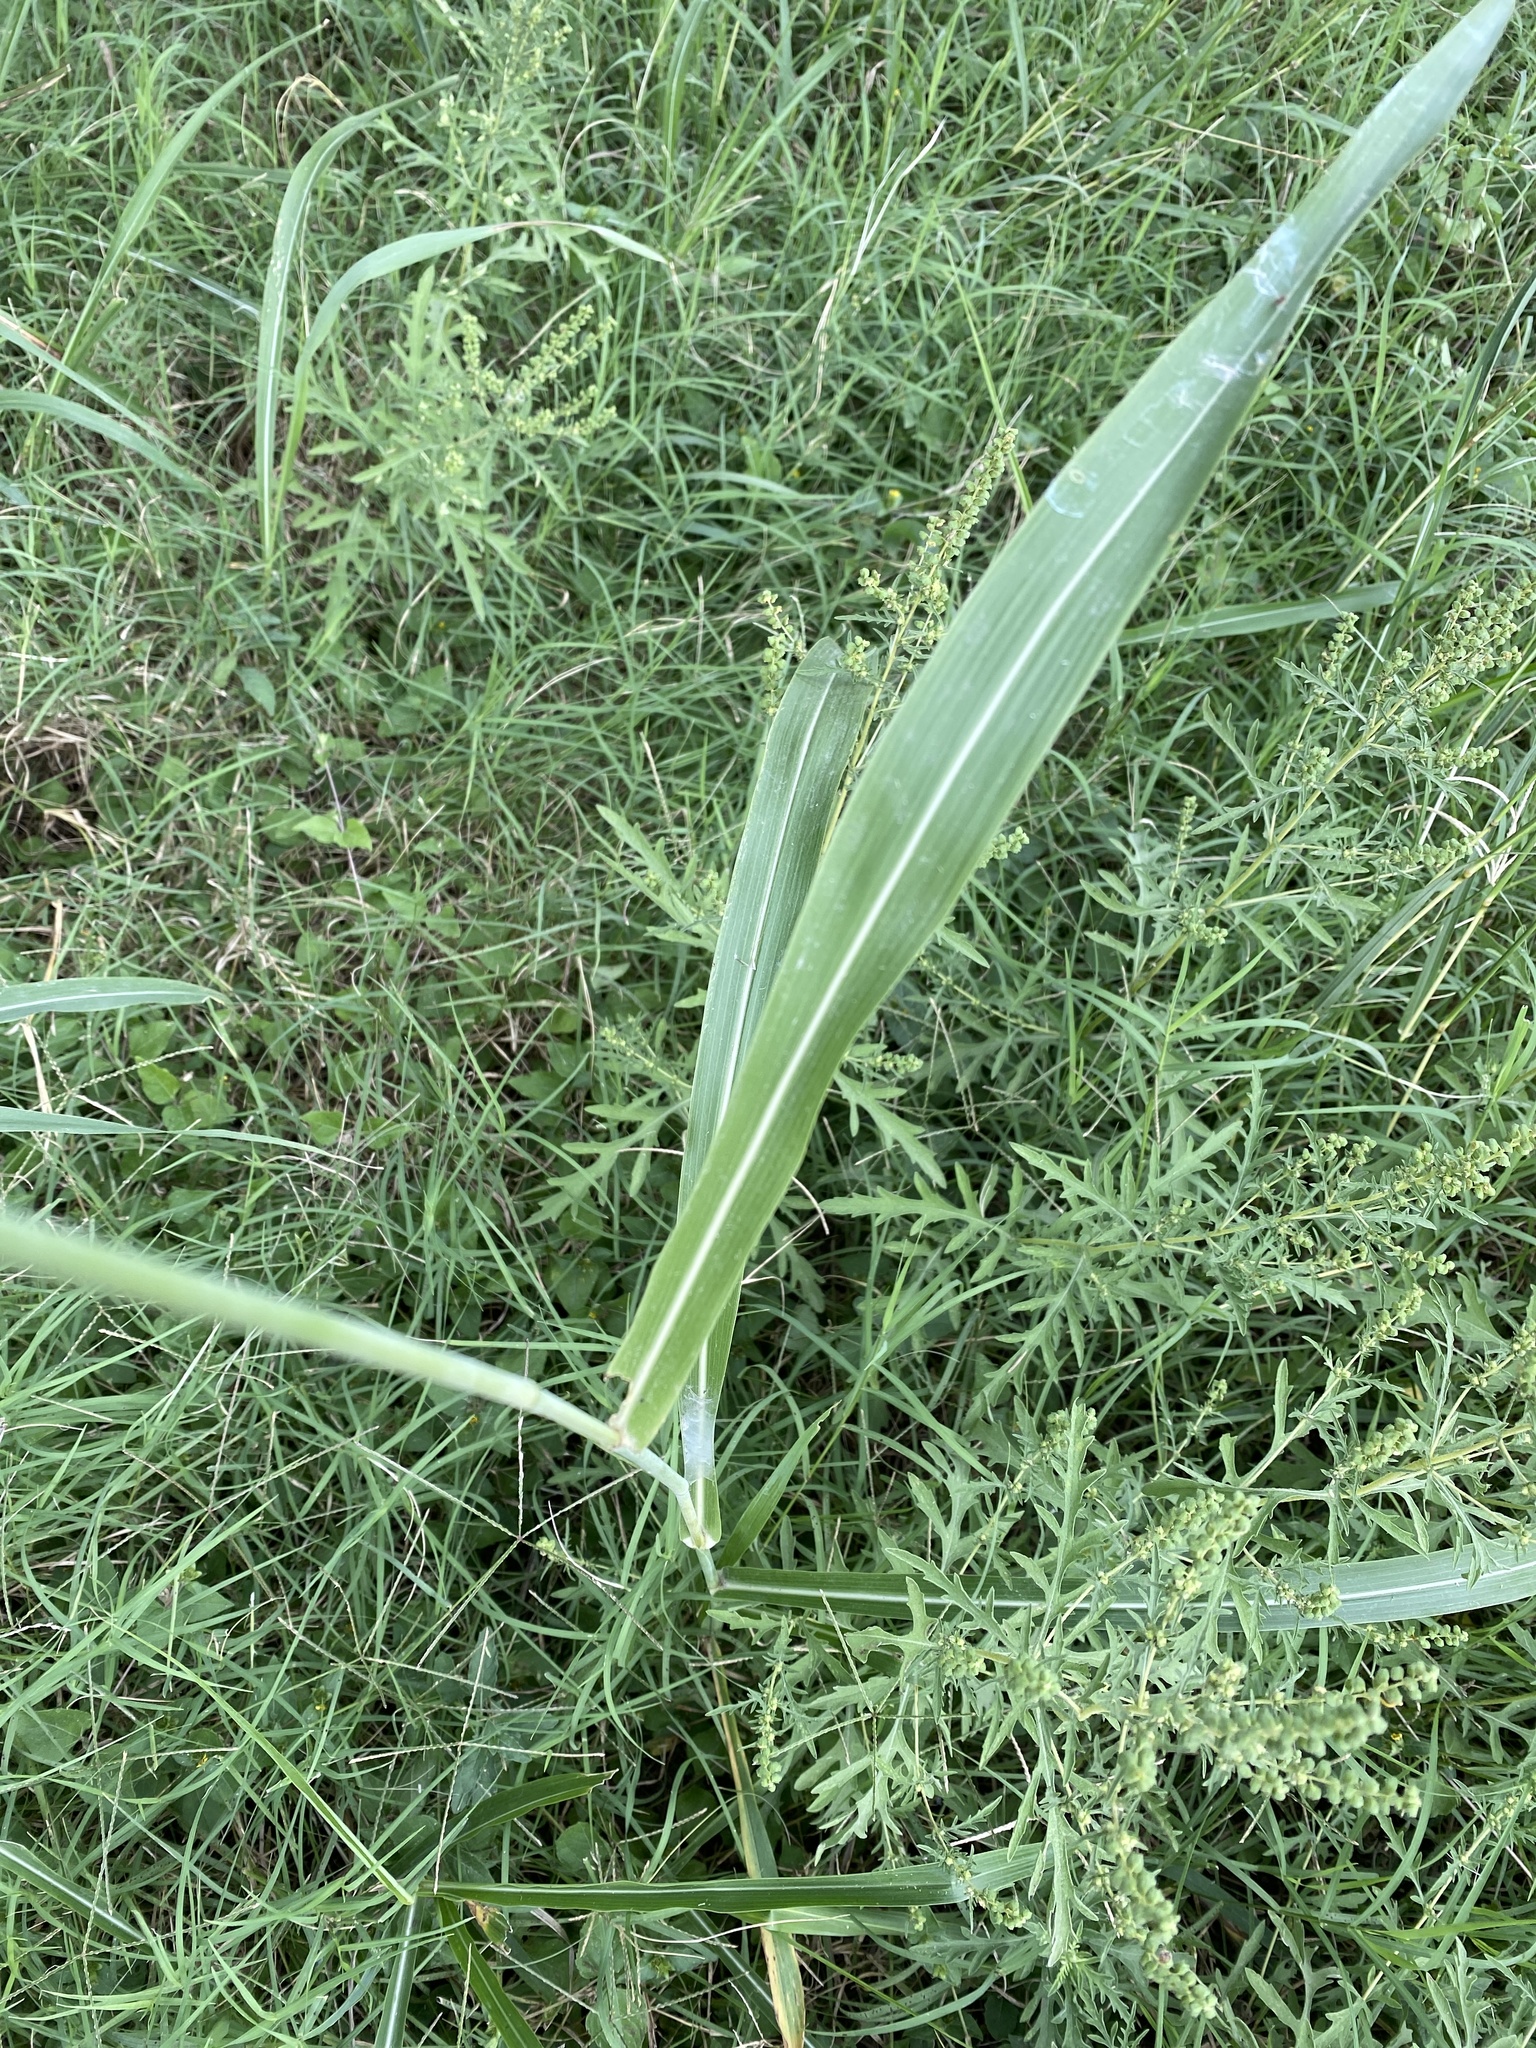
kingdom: Plantae
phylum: Tracheophyta
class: Liliopsida
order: Poales
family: Poaceae
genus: Sorghum
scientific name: Sorghum halepense
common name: Johnson-grass
